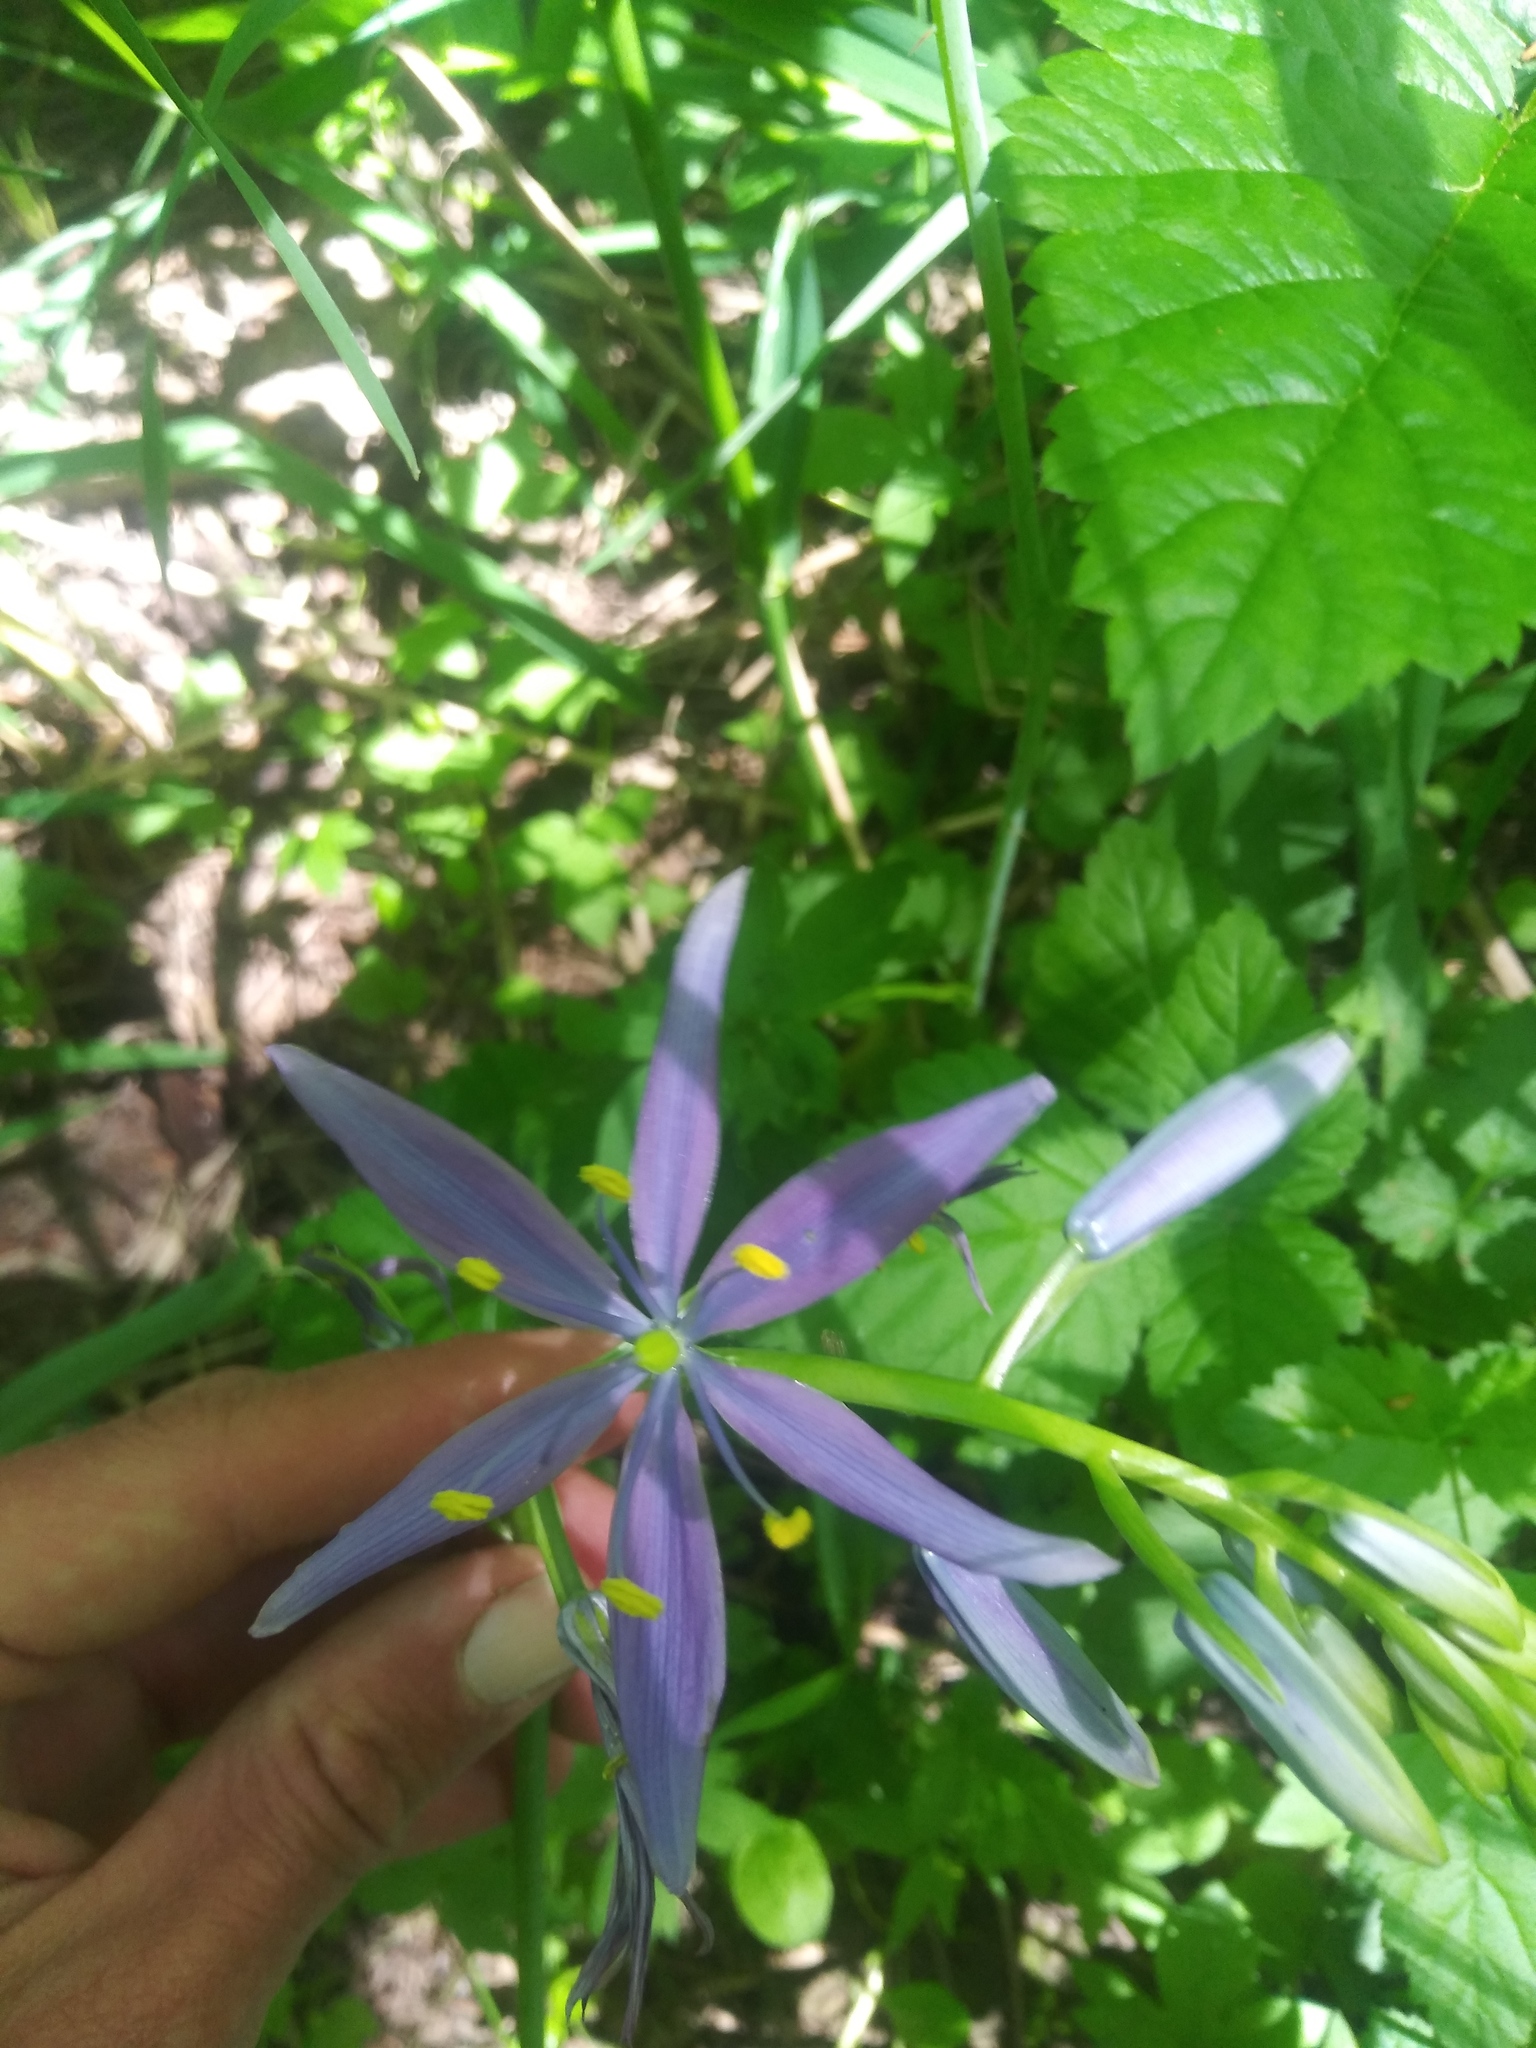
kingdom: Plantae
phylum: Tracheophyta
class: Liliopsida
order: Asparagales
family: Asparagaceae
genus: Camassia
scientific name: Camassia leichtlinii
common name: Leichtlin's camas
